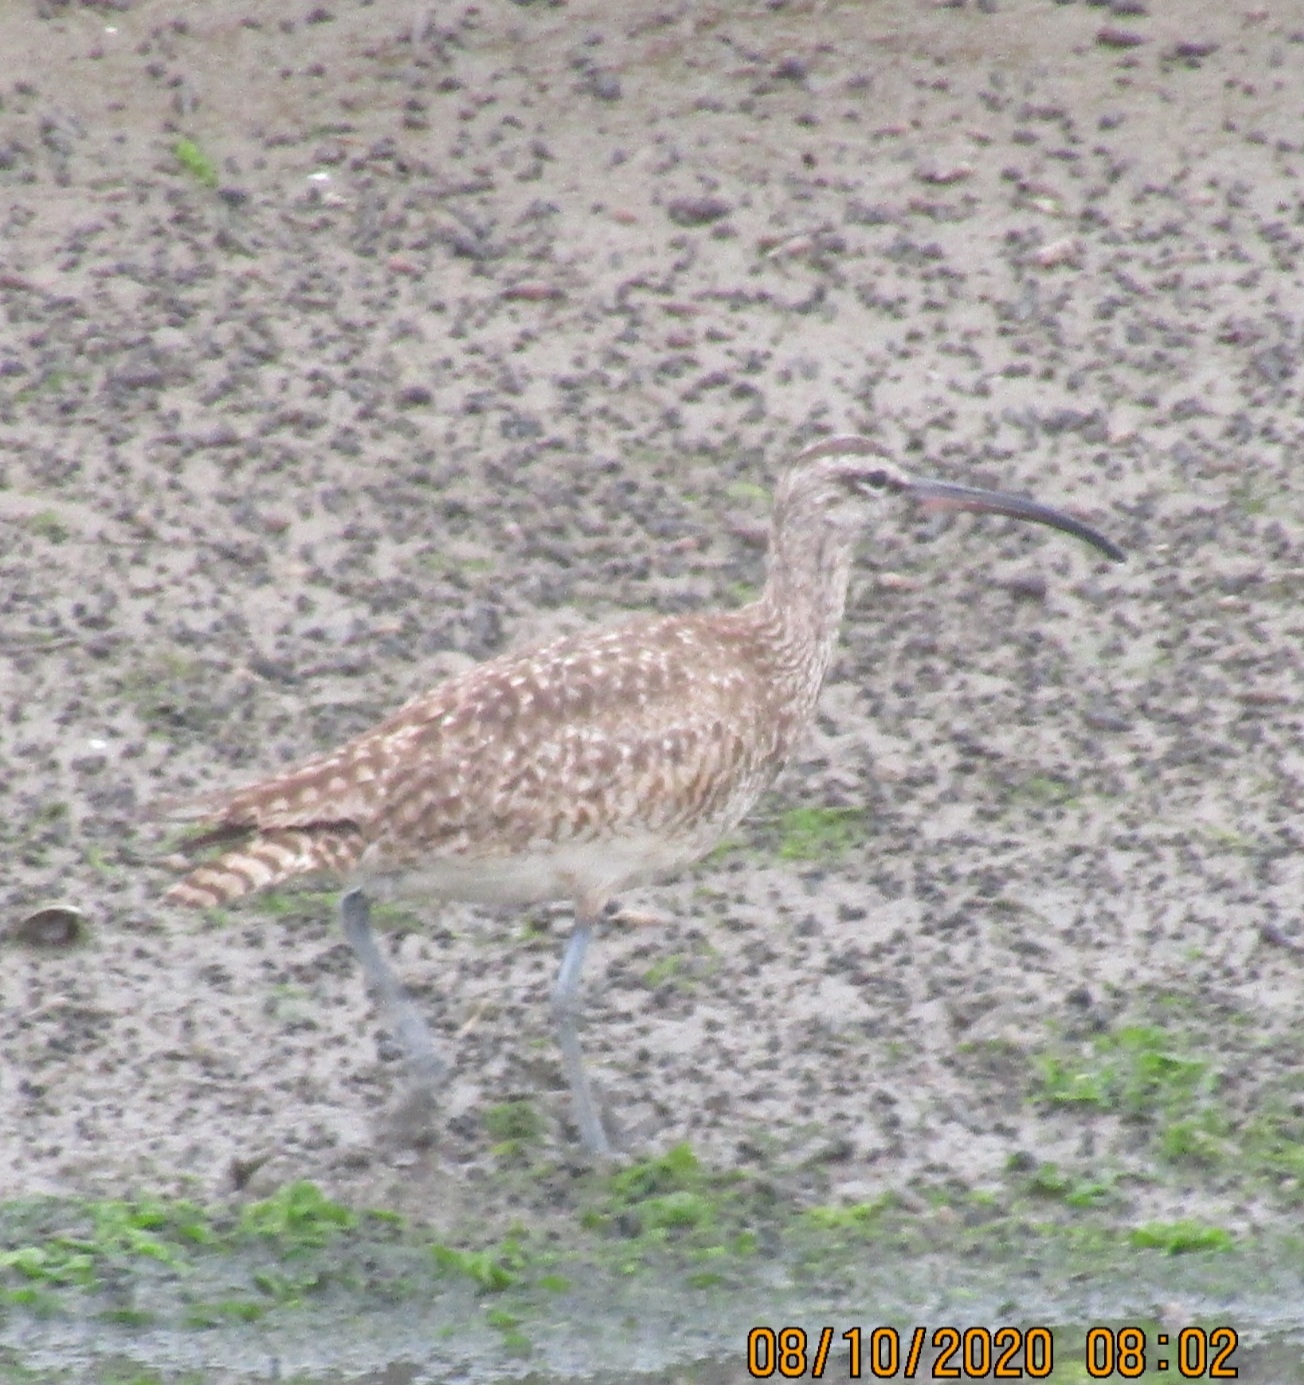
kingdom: Animalia
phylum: Chordata
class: Aves
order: Charadriiformes
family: Scolopacidae
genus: Numenius
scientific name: Numenius phaeopus
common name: Whimbrel
